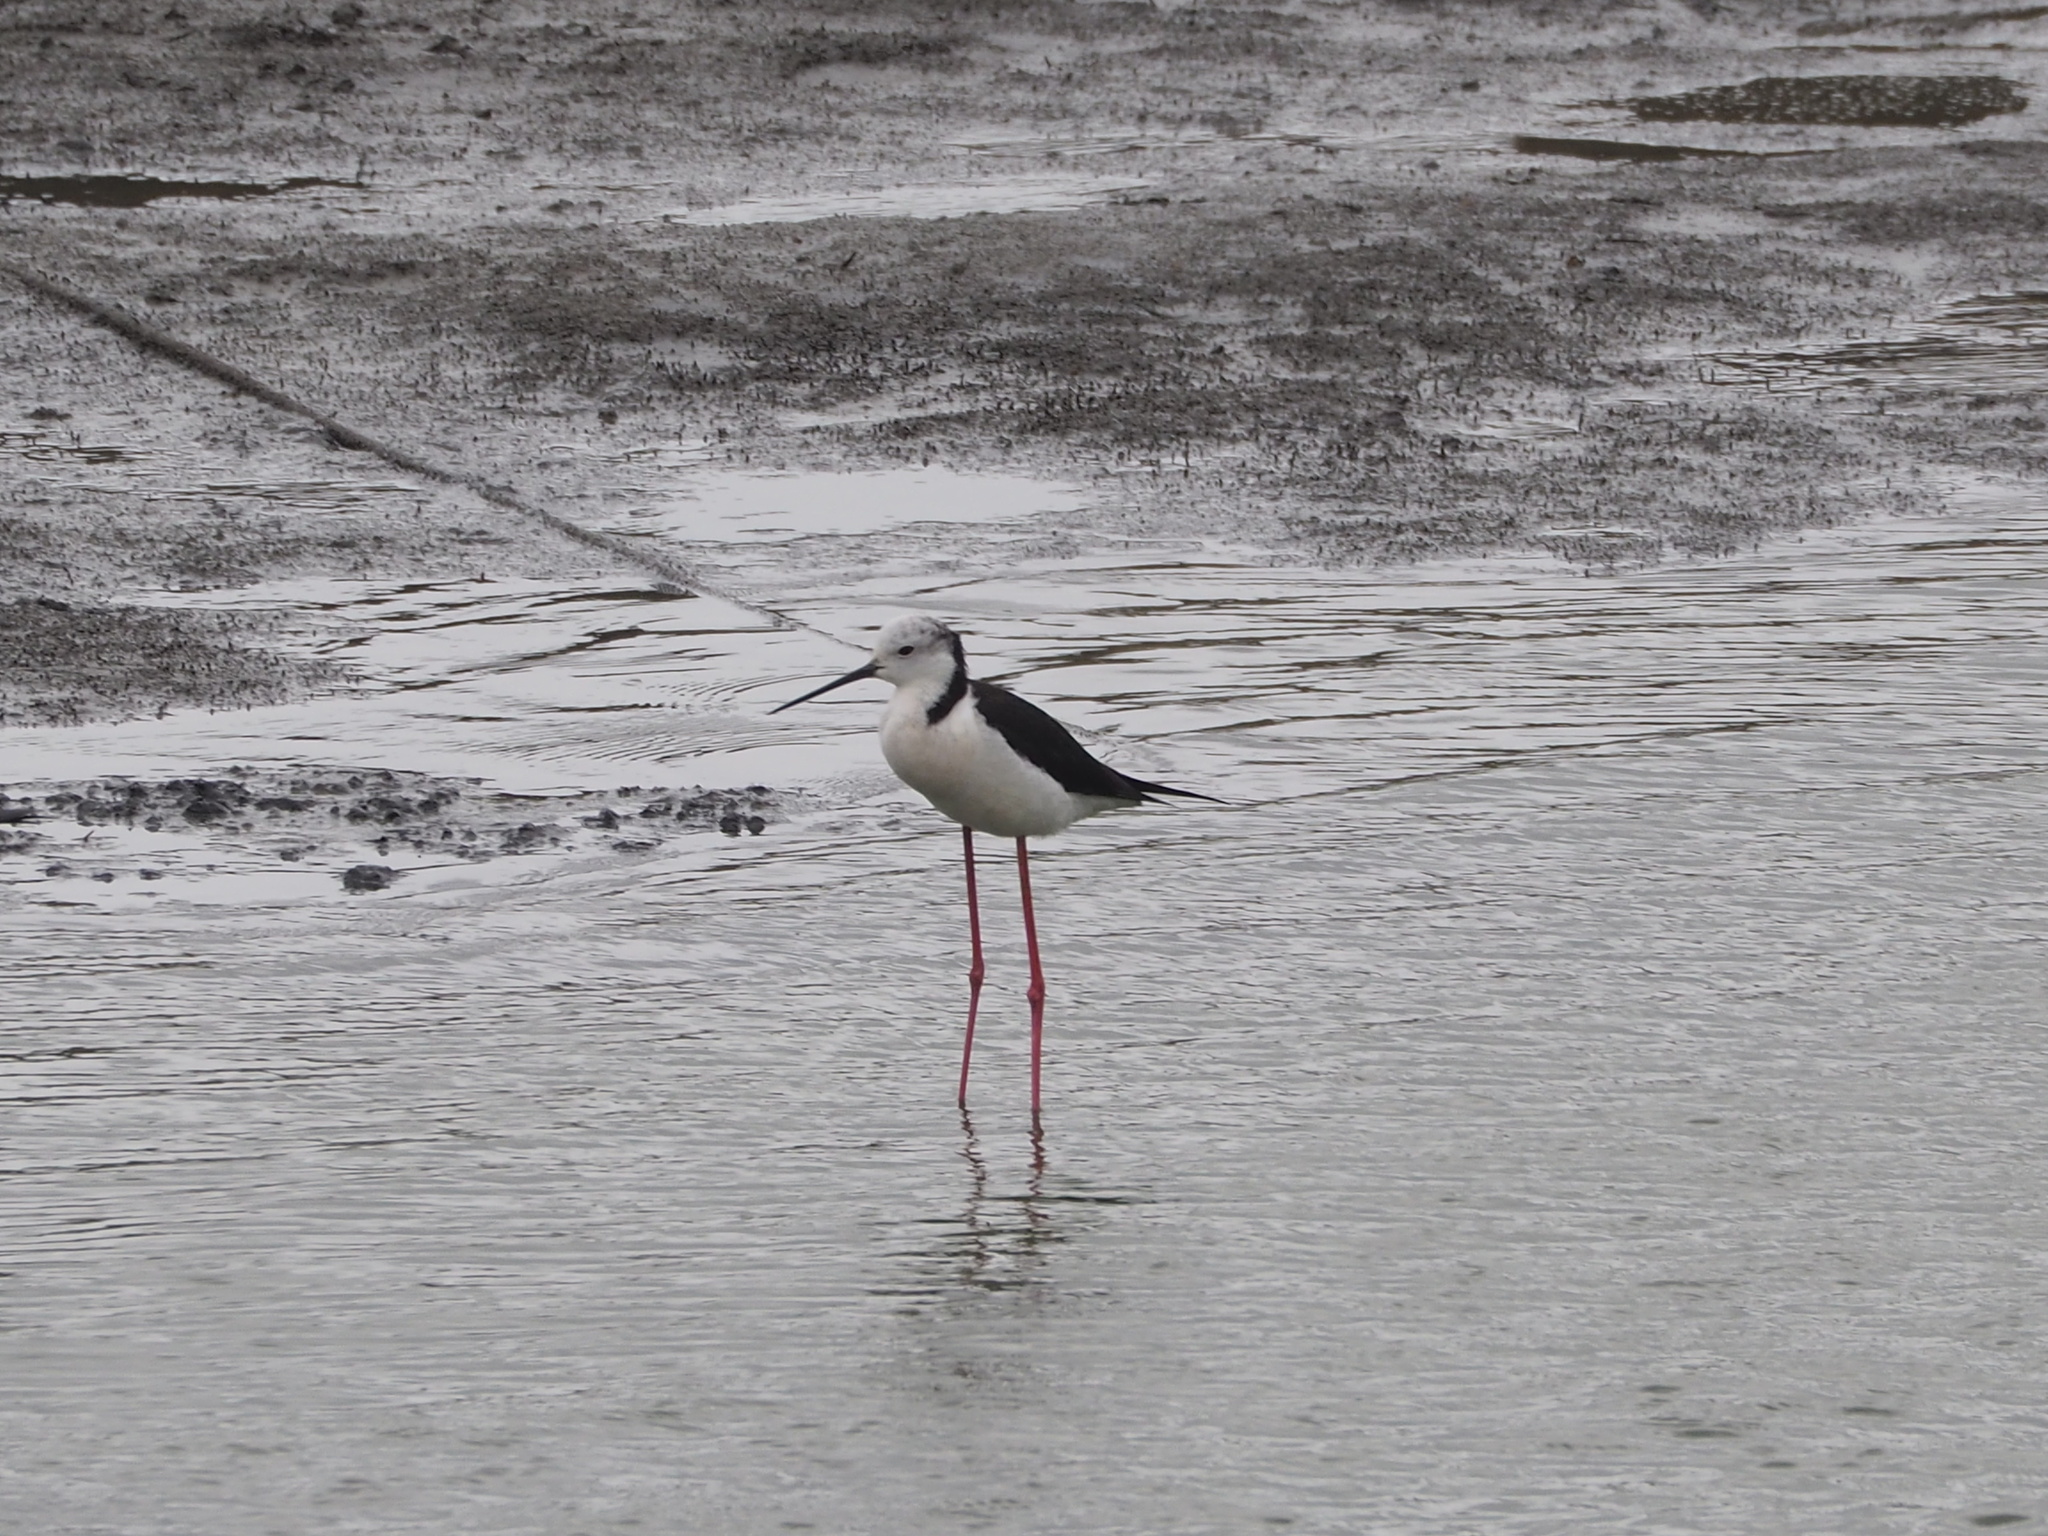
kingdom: Animalia
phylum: Chordata
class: Aves
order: Charadriiformes
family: Recurvirostridae
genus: Himantopus
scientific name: Himantopus himantopus
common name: Black-winged stilt
